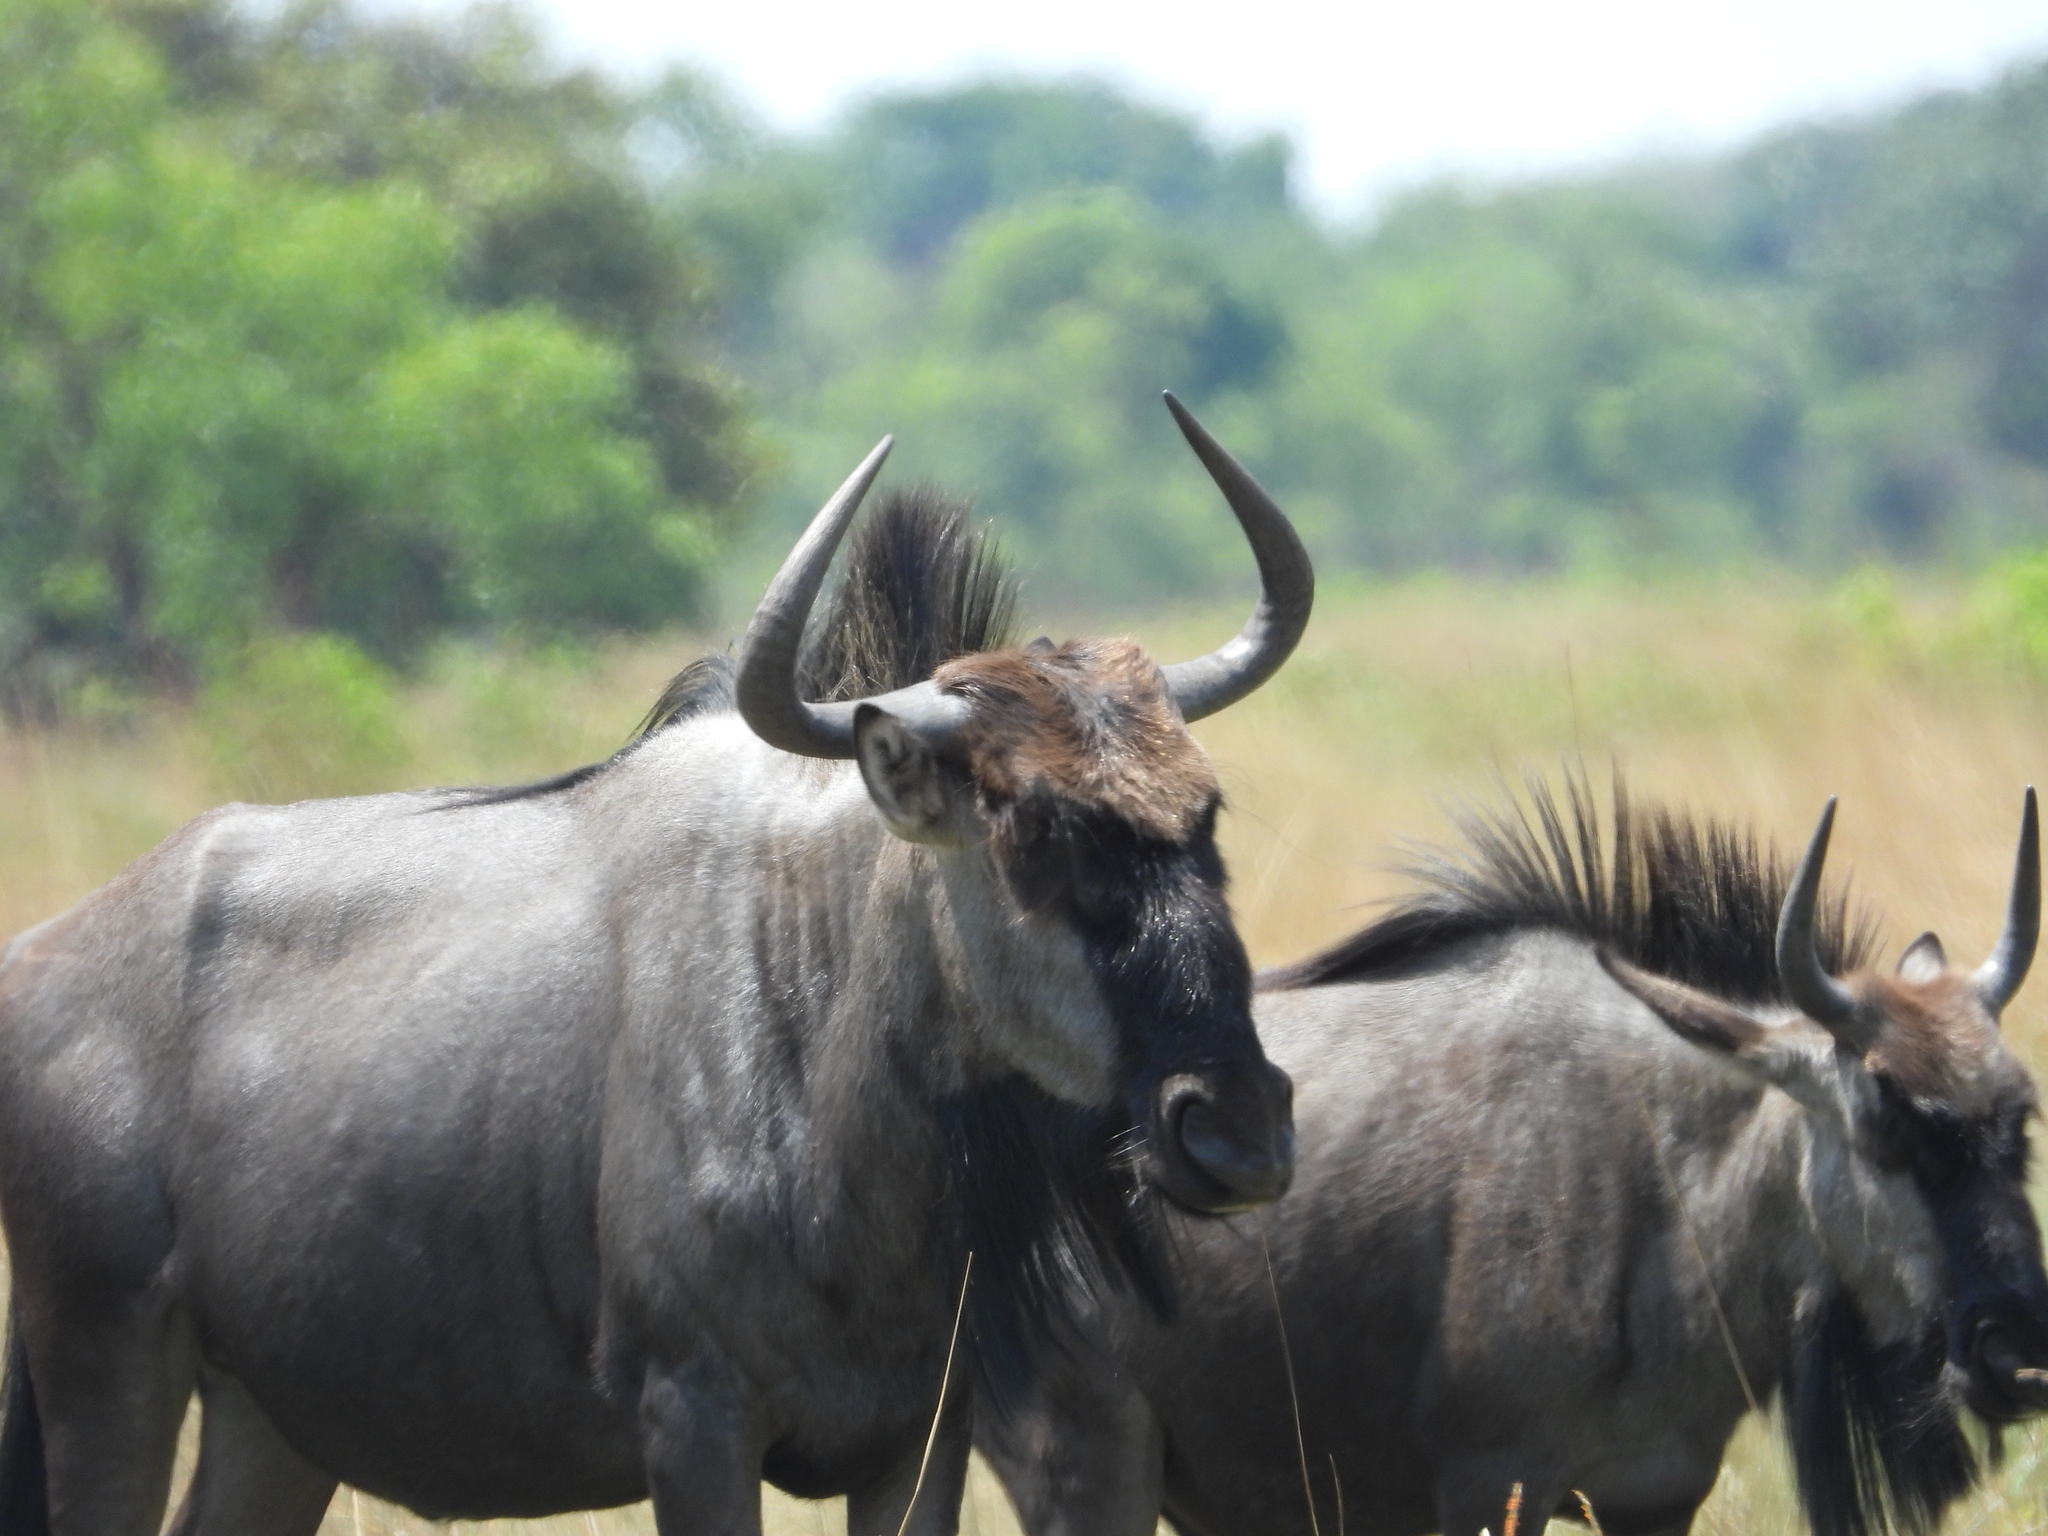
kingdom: Animalia
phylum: Chordata
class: Mammalia
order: Artiodactyla
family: Bovidae
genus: Connochaetes
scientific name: Connochaetes taurinus
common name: Blue wildebeest
